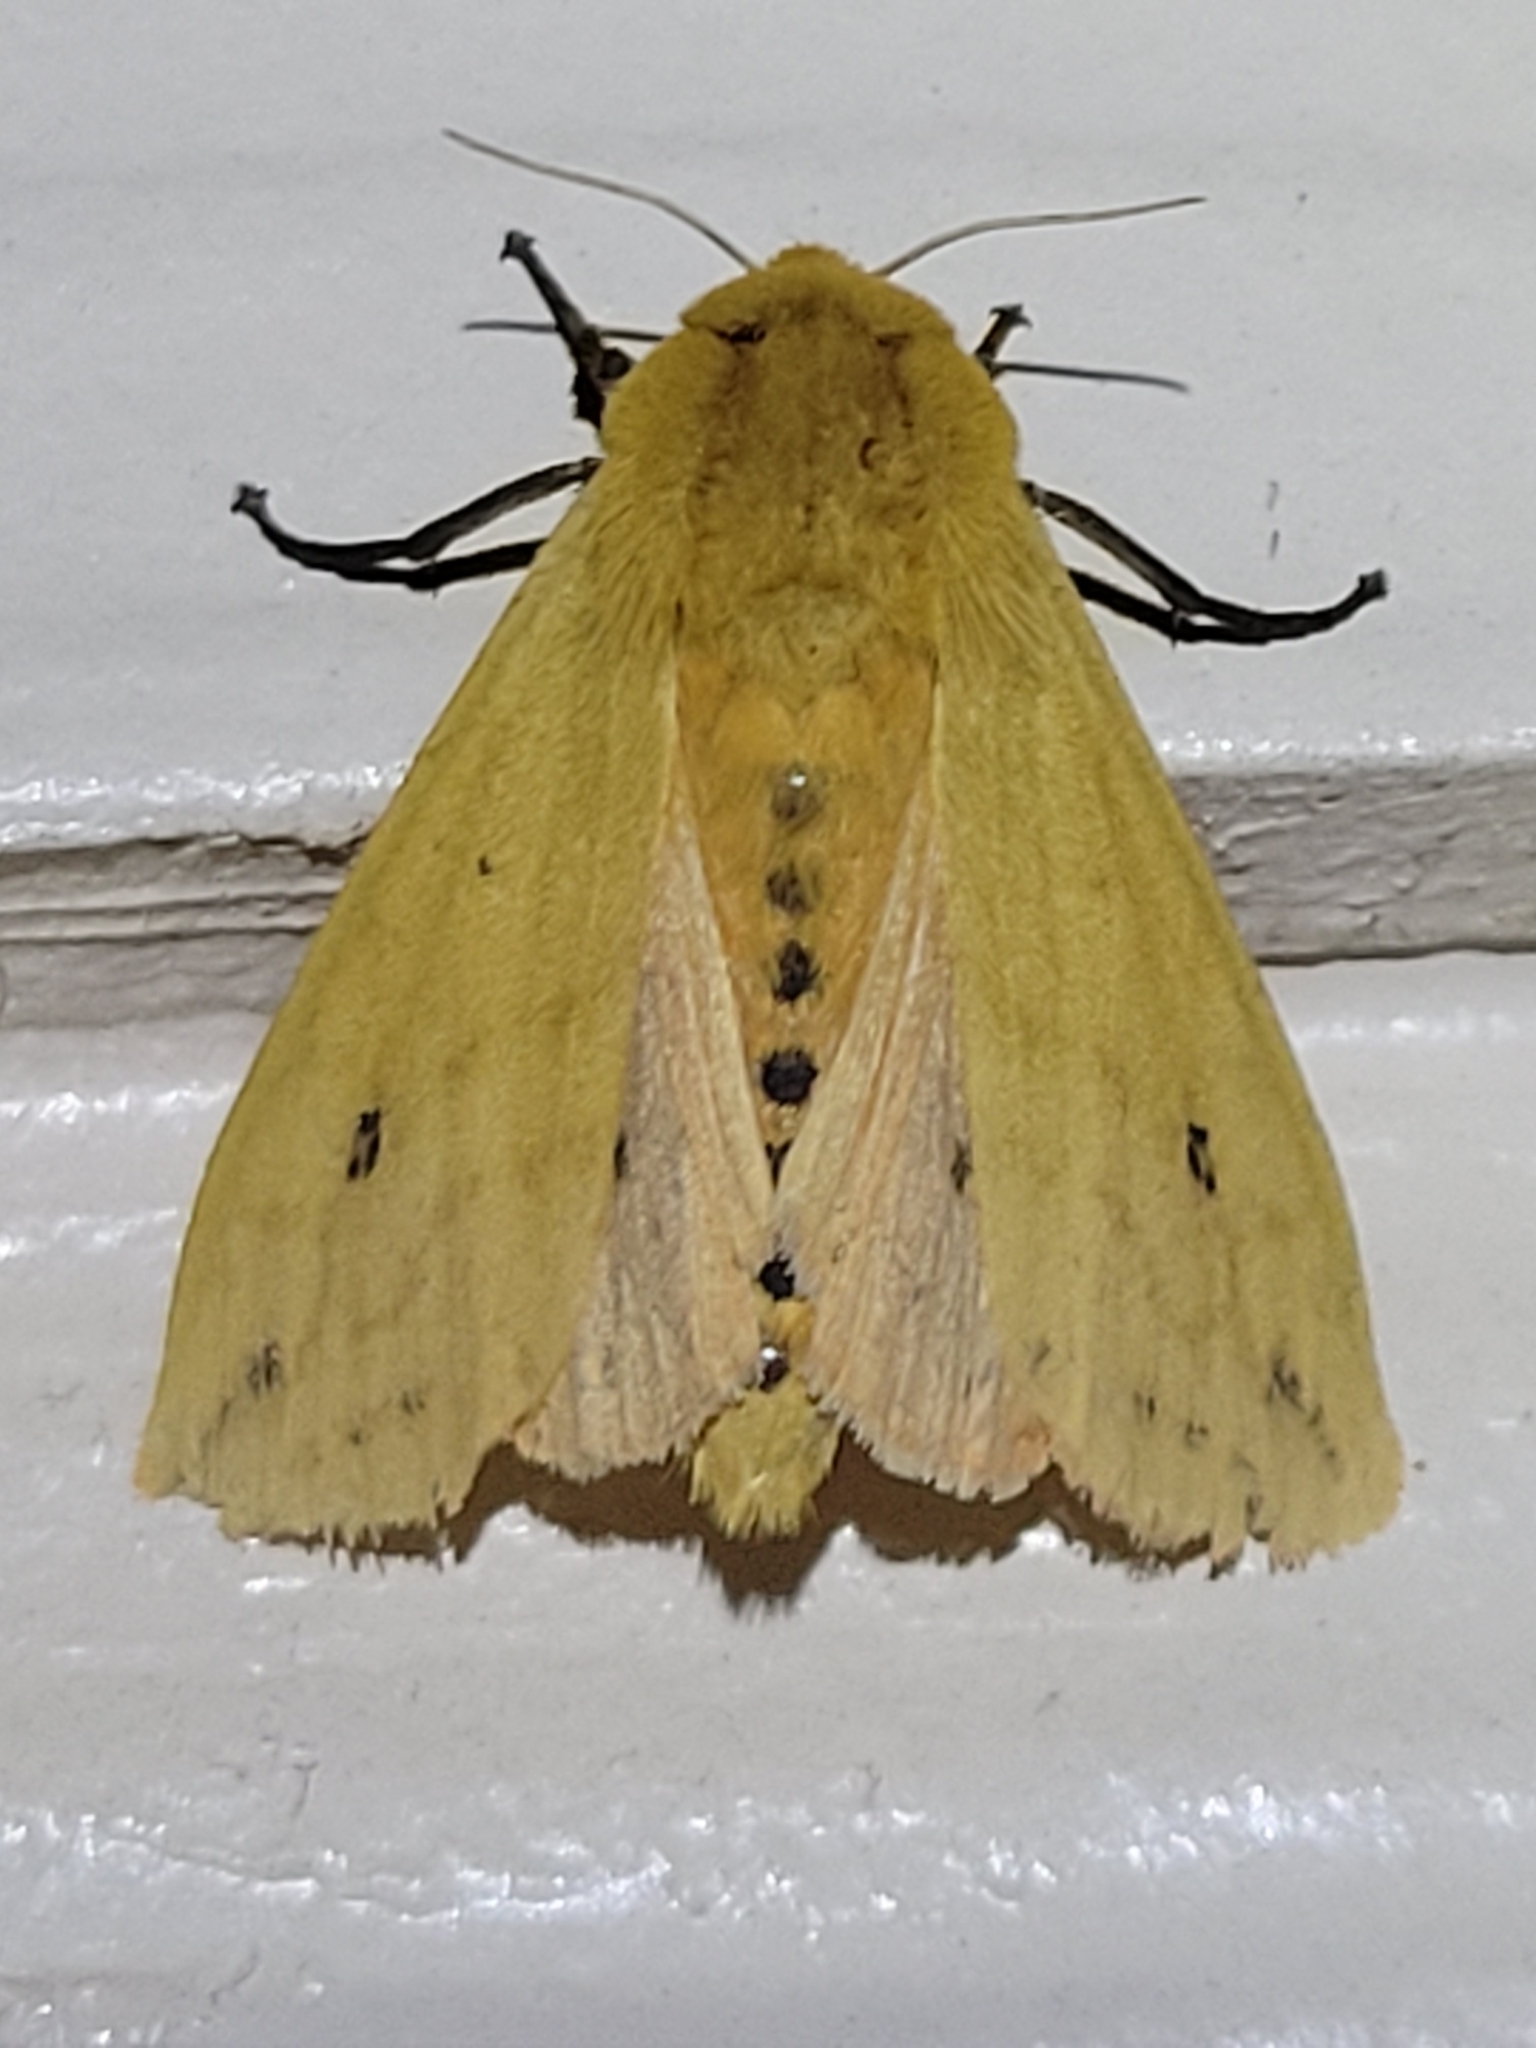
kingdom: Animalia
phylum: Arthropoda
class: Insecta
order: Lepidoptera
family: Erebidae
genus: Pyrrharctia
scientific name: Pyrrharctia isabella
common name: Isabella tiger moth
